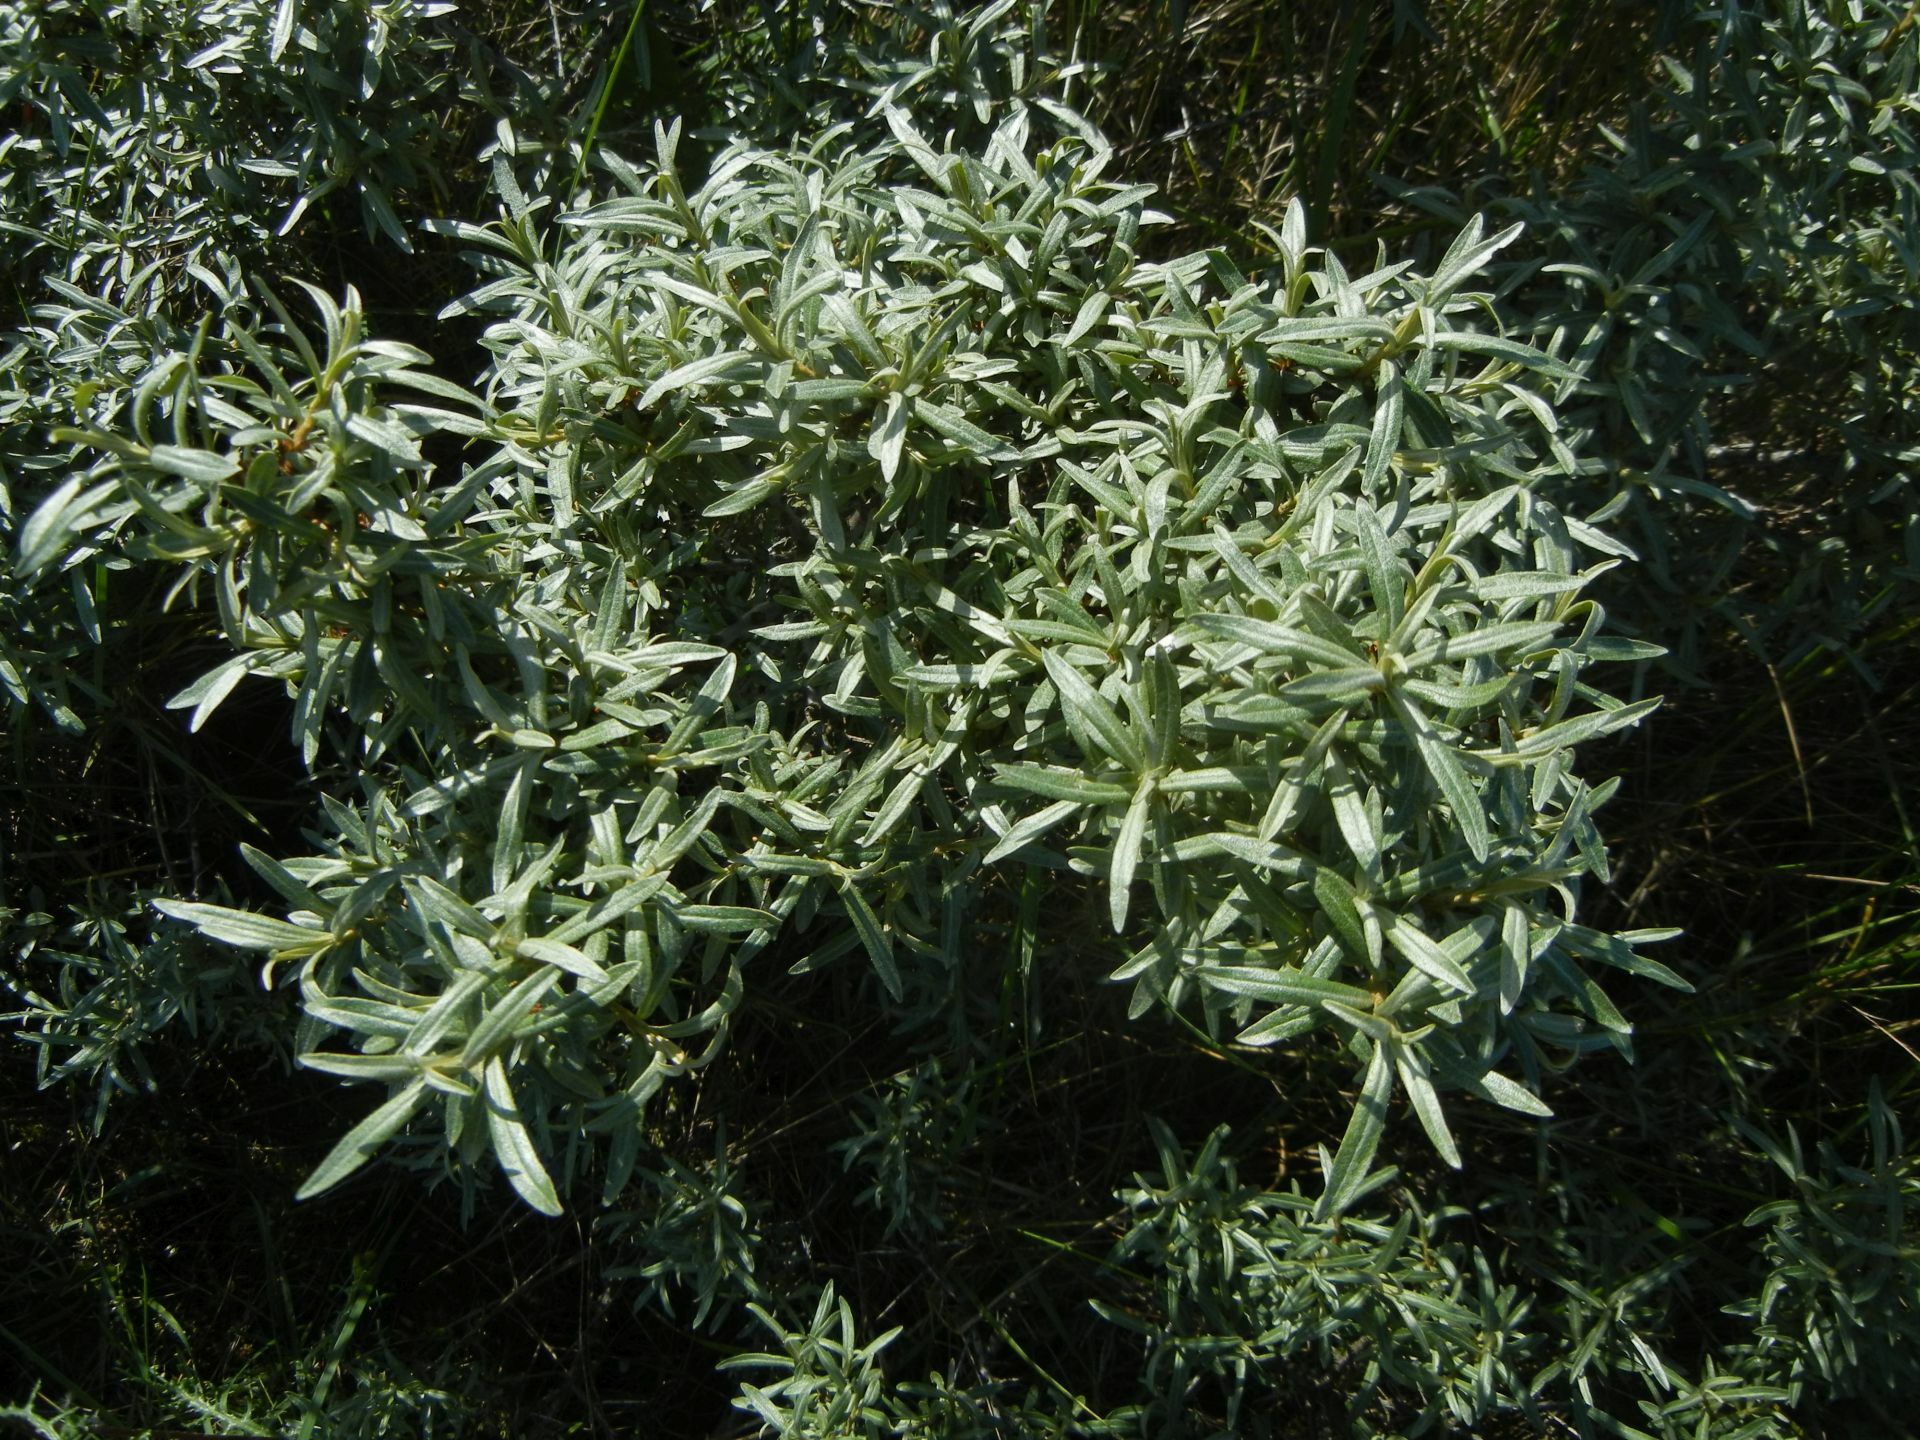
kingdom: Plantae
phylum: Tracheophyta
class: Magnoliopsida
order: Rosales
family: Elaeagnaceae
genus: Hippophae
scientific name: Hippophae rhamnoides
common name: Sea-buckthorn
